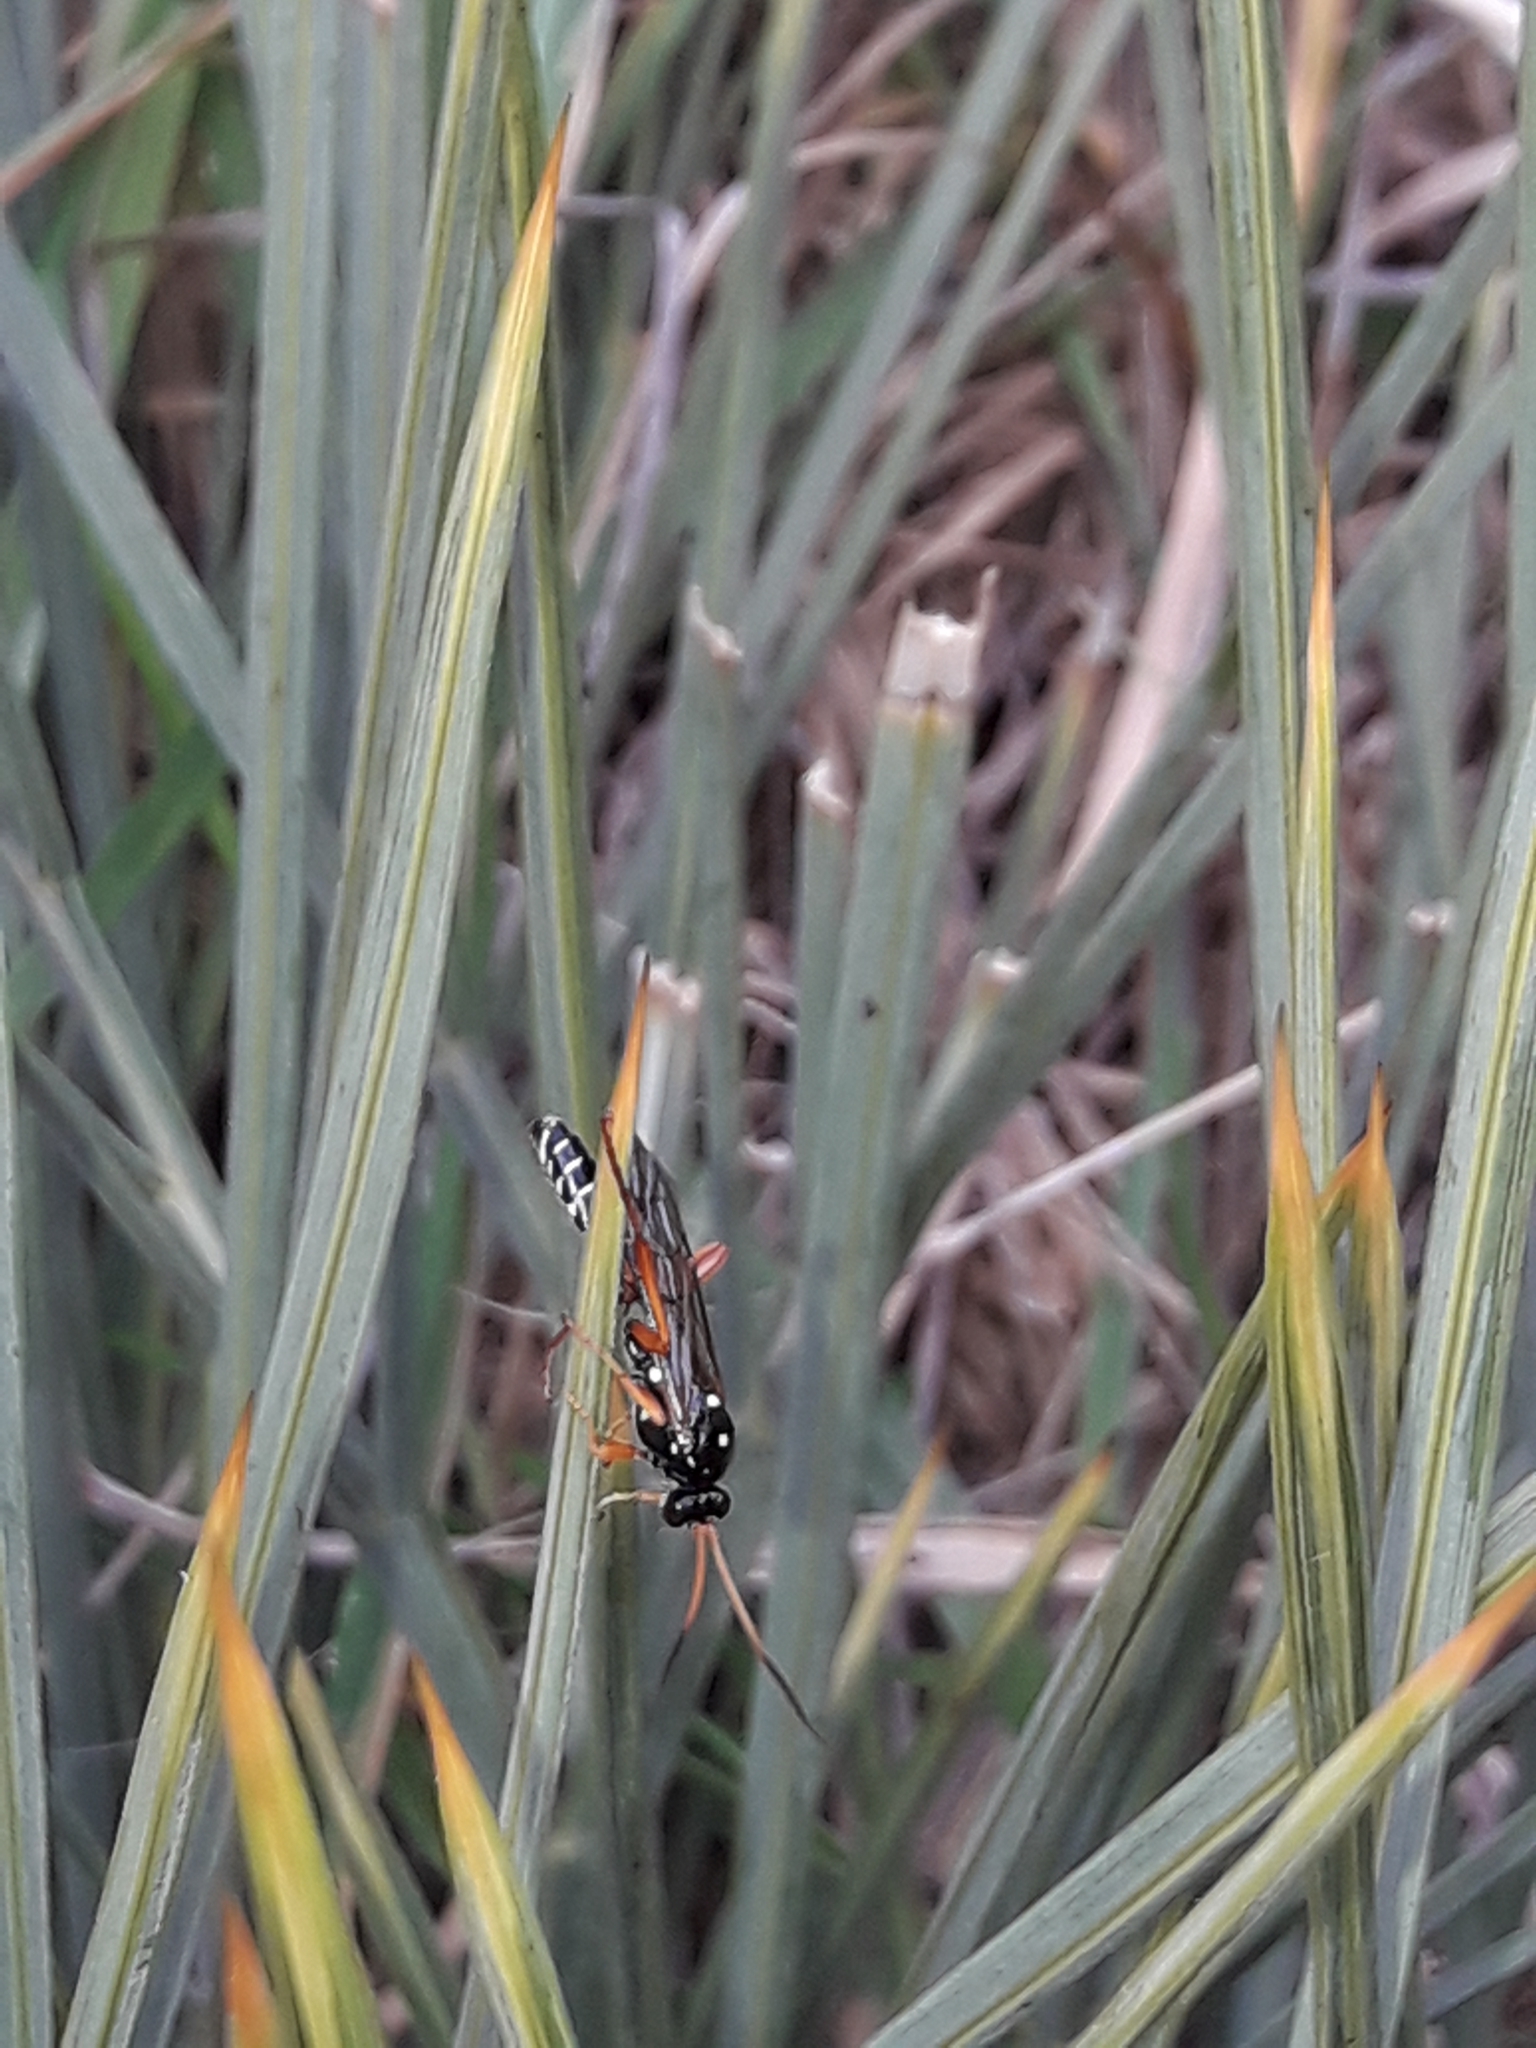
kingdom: Animalia
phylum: Arthropoda
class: Insecta
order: Hymenoptera
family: Ichneumonidae
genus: Eutanyacra
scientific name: Eutanyacra licitatoria
